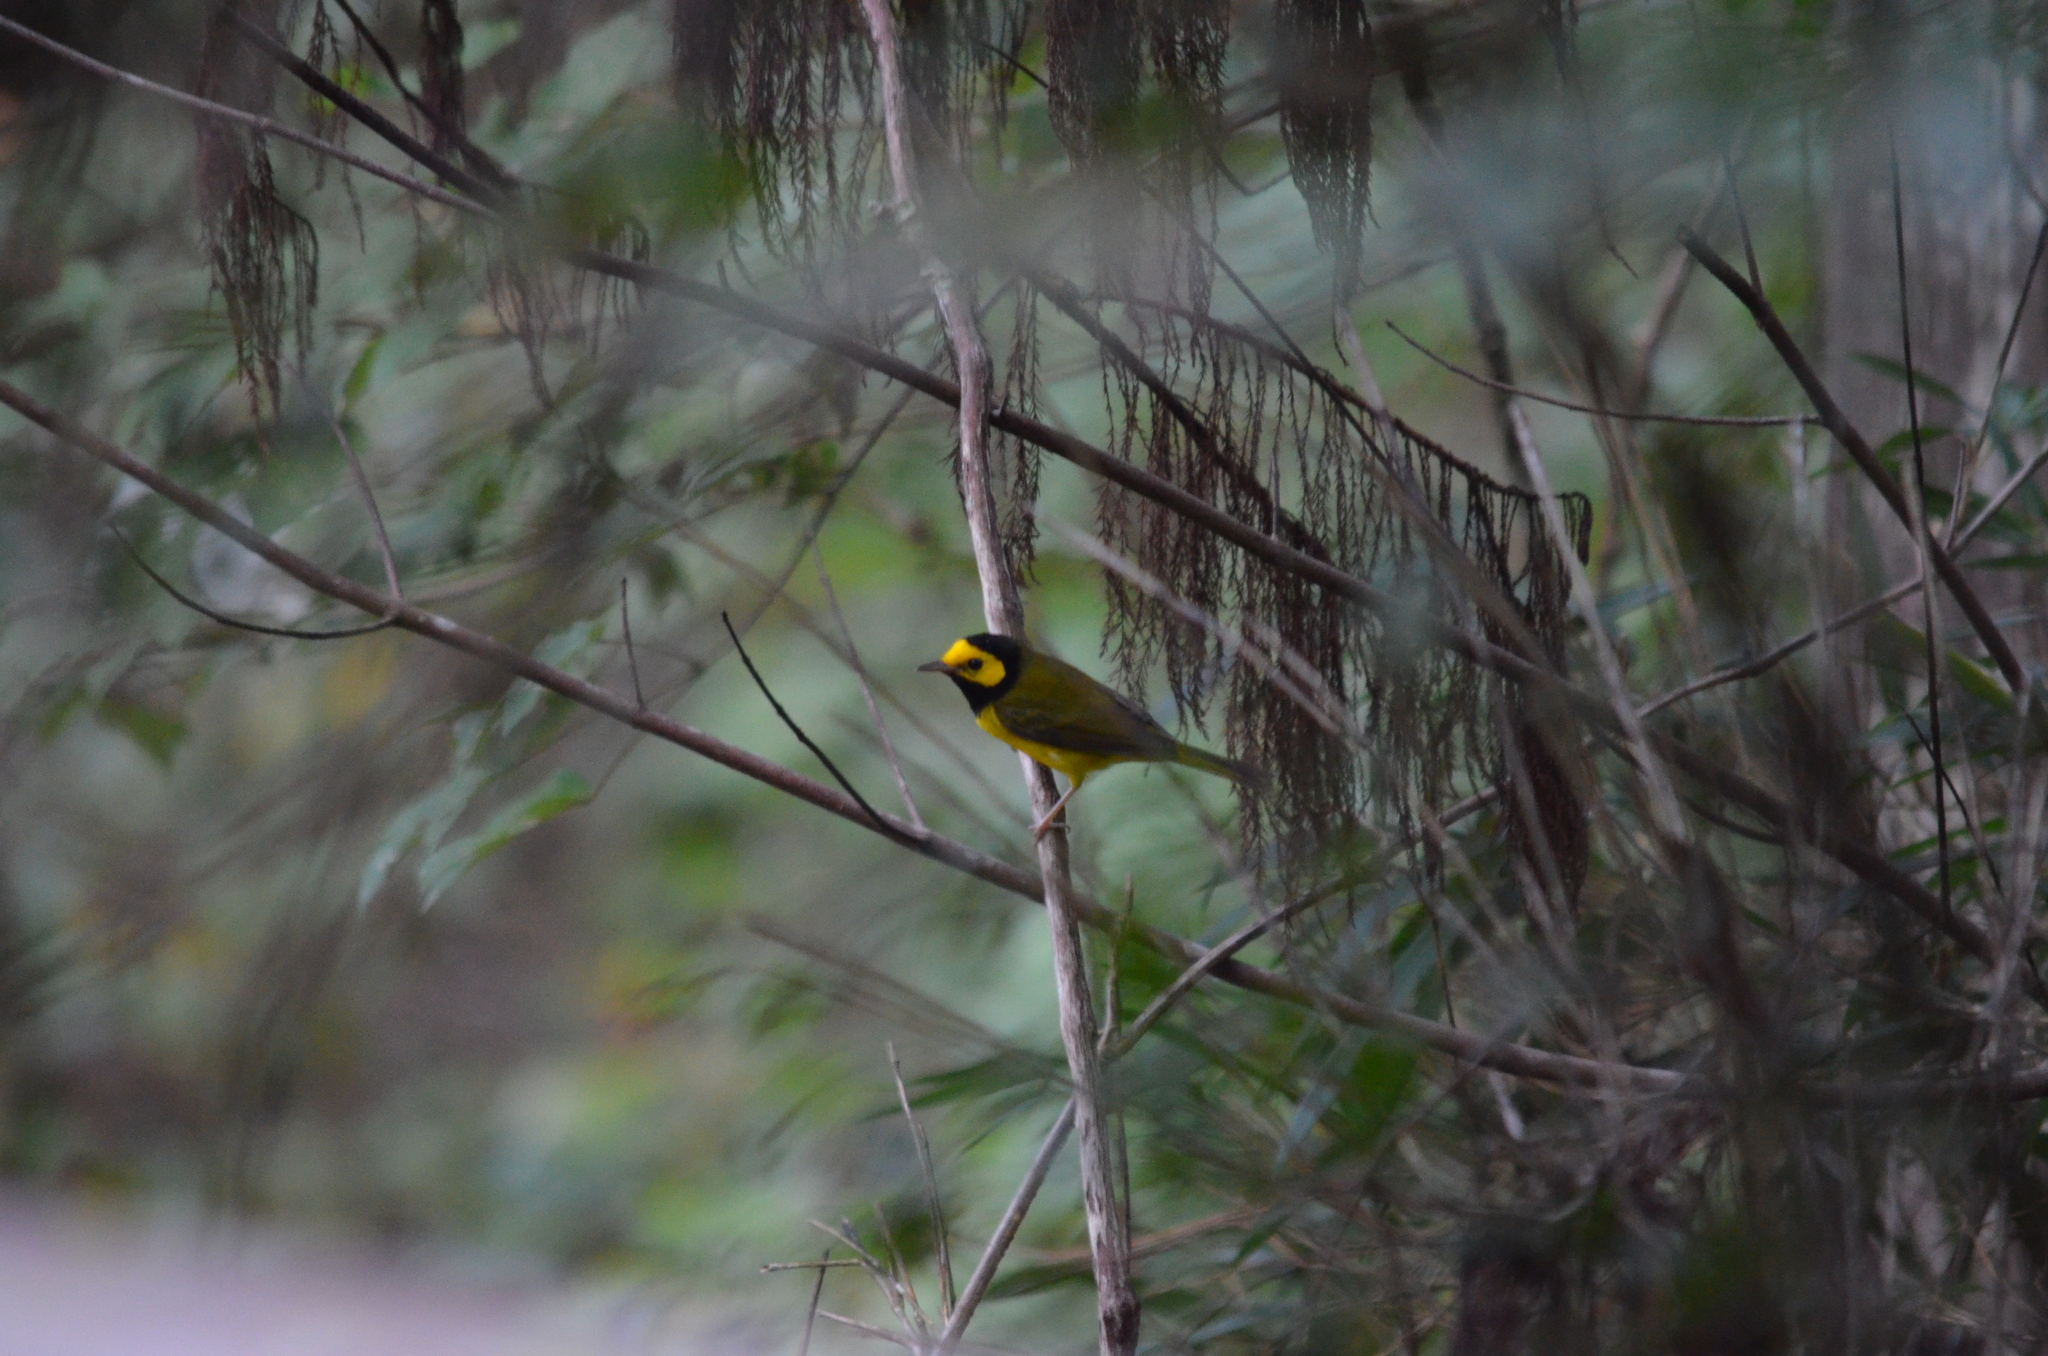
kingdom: Animalia
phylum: Chordata
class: Aves
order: Passeriformes
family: Parulidae
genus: Setophaga
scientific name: Setophaga citrina
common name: Hooded warbler
